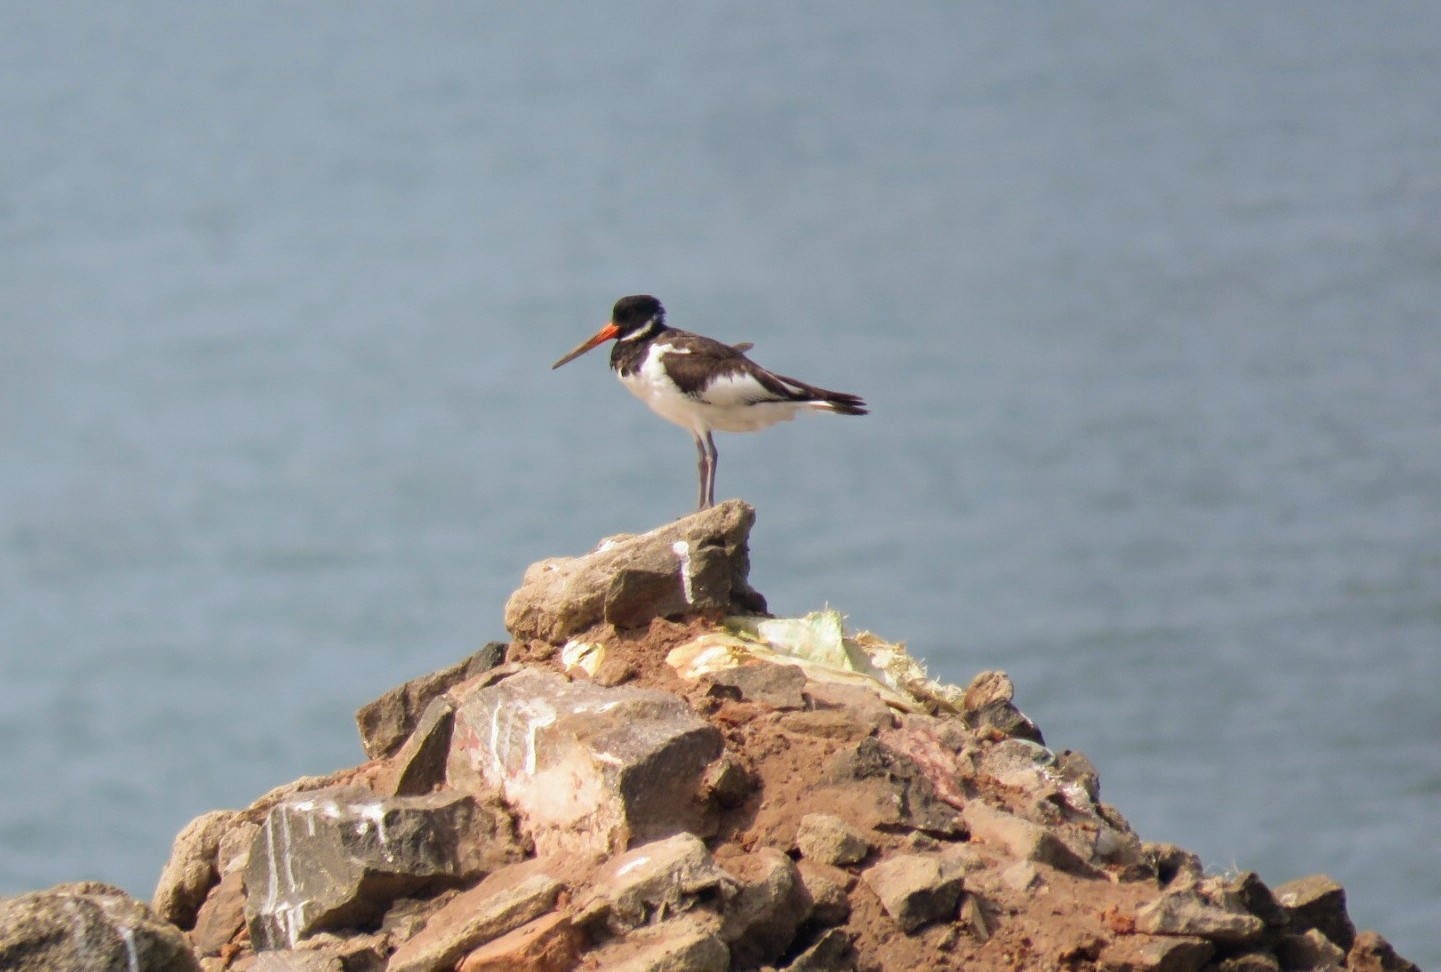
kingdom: Animalia
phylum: Chordata
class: Aves
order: Charadriiformes
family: Haematopodidae
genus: Haematopus
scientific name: Haematopus ostralegus
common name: Eurasian oystercatcher
